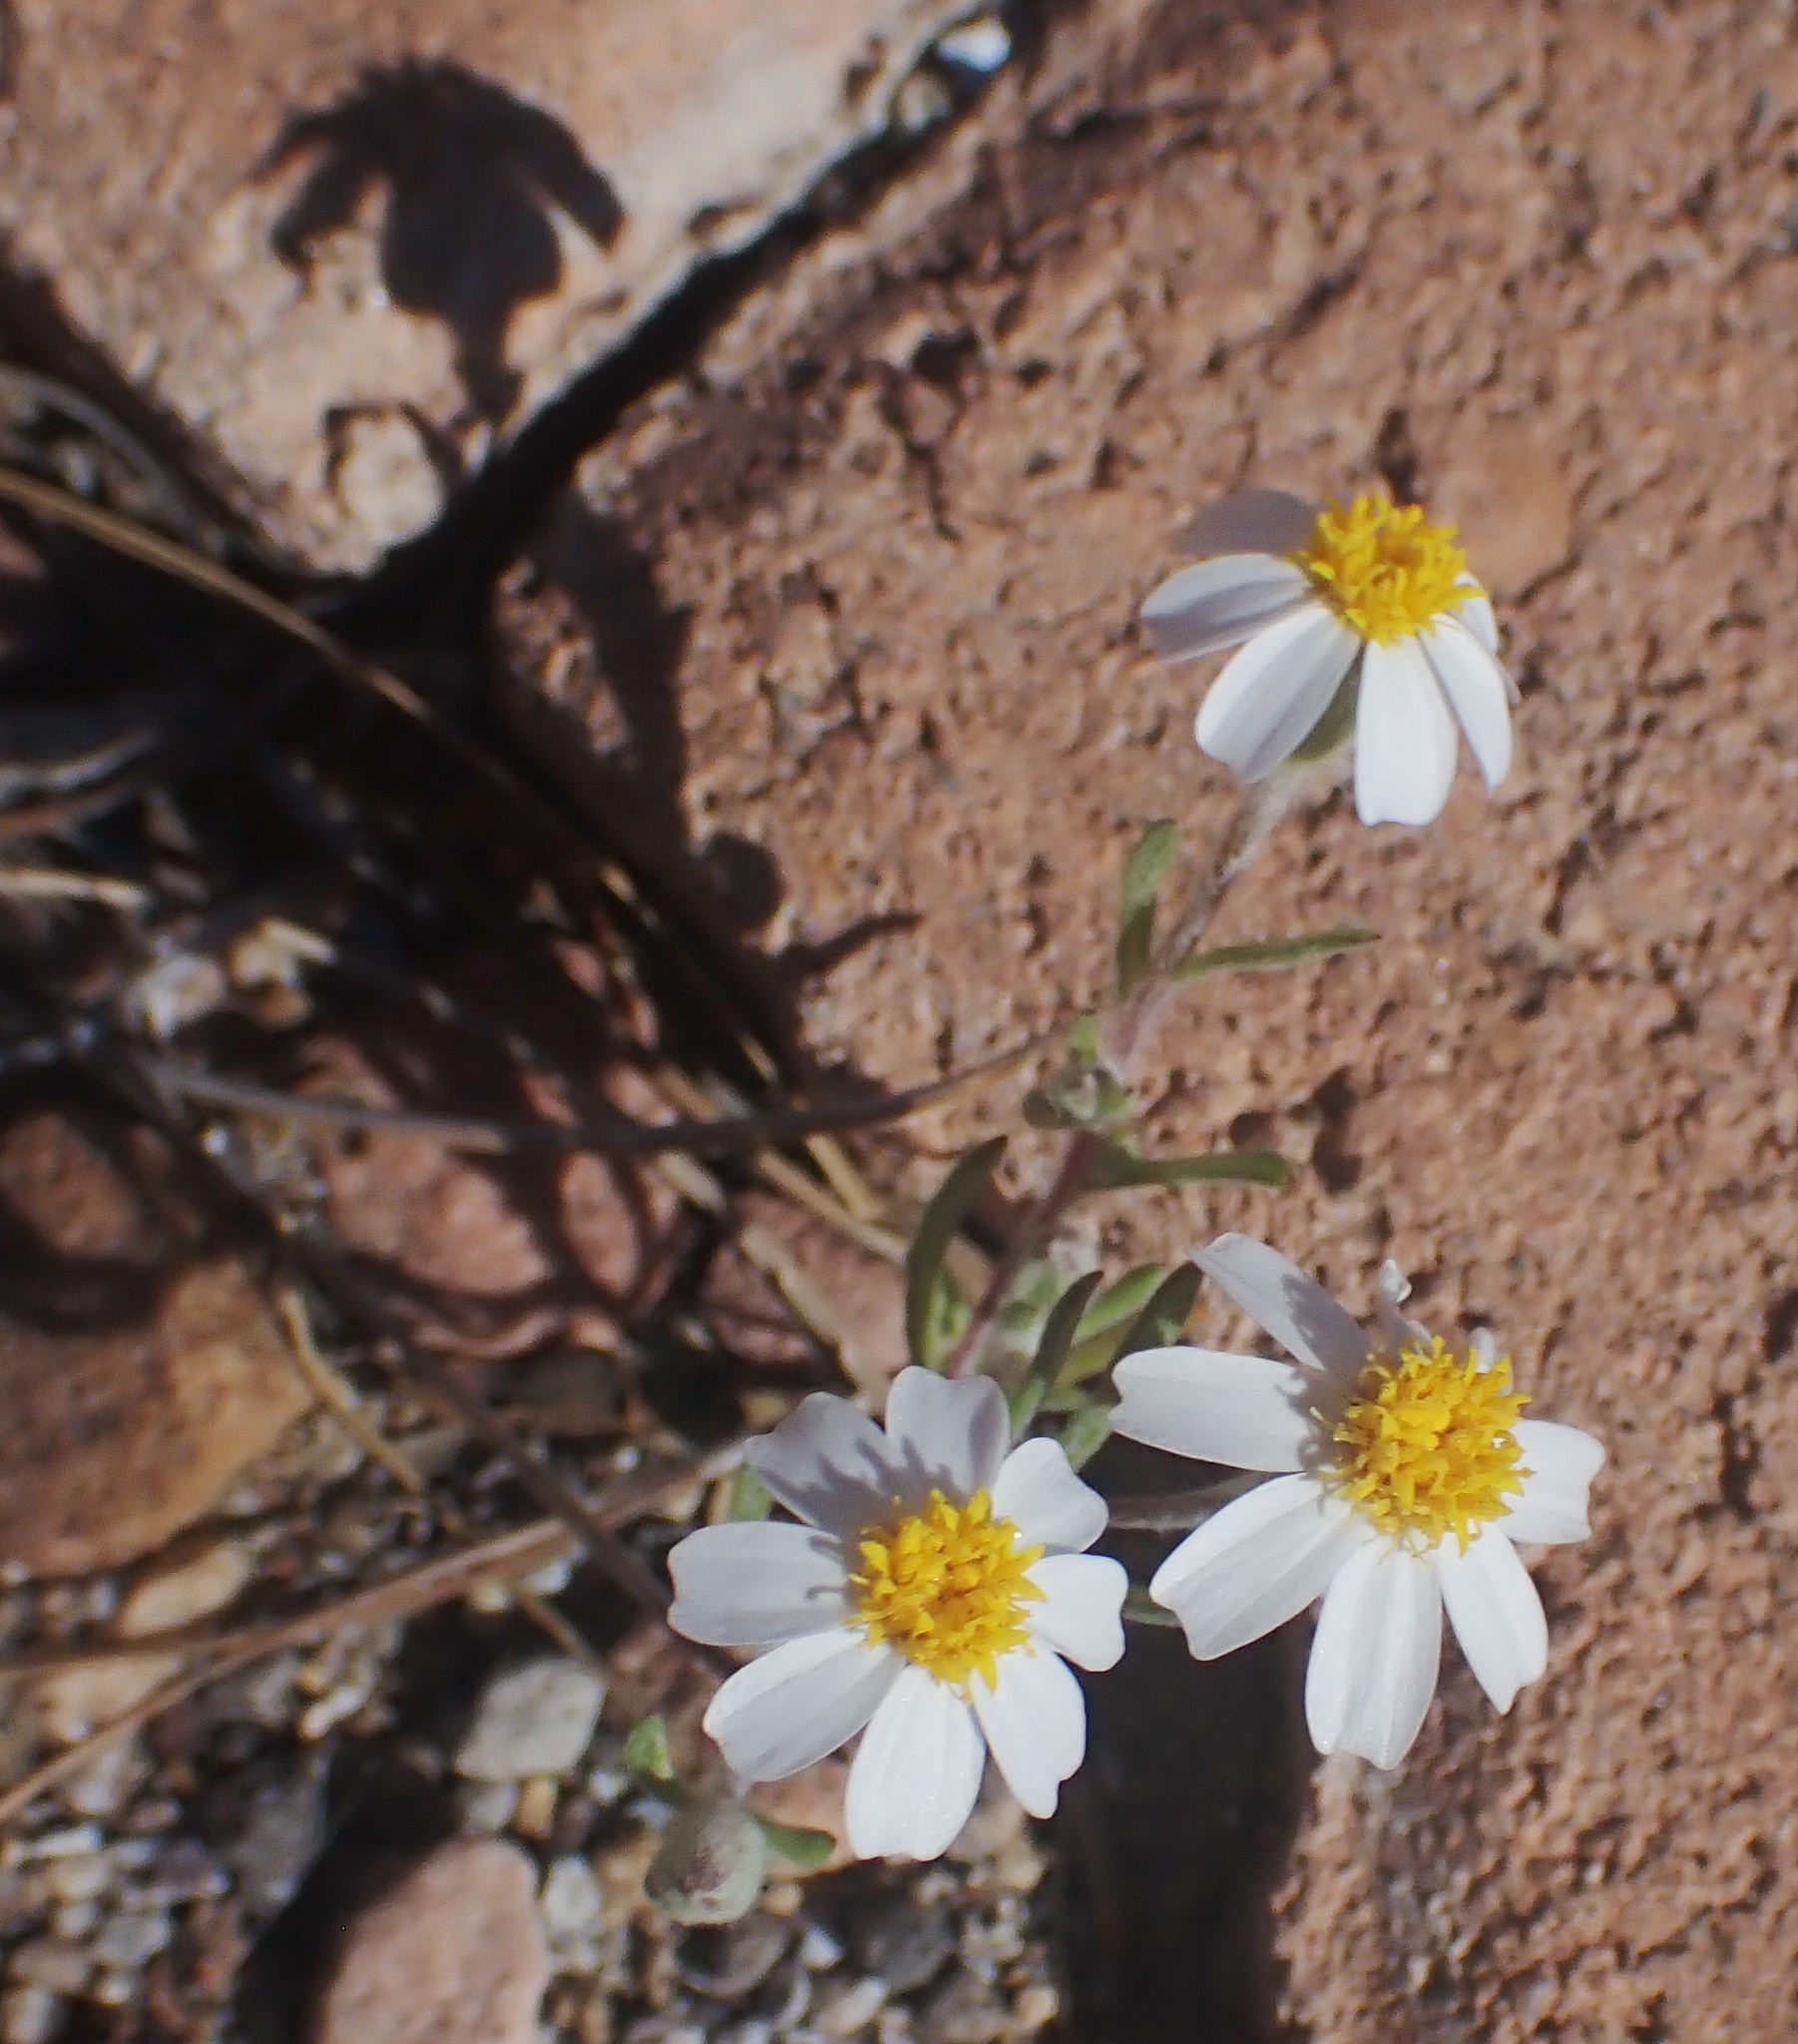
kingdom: Plantae
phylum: Tracheophyta
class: Magnoliopsida
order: Asterales
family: Asteraceae
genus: Eriophyllum
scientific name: Eriophyllum lanosum
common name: White easter-bonnets
